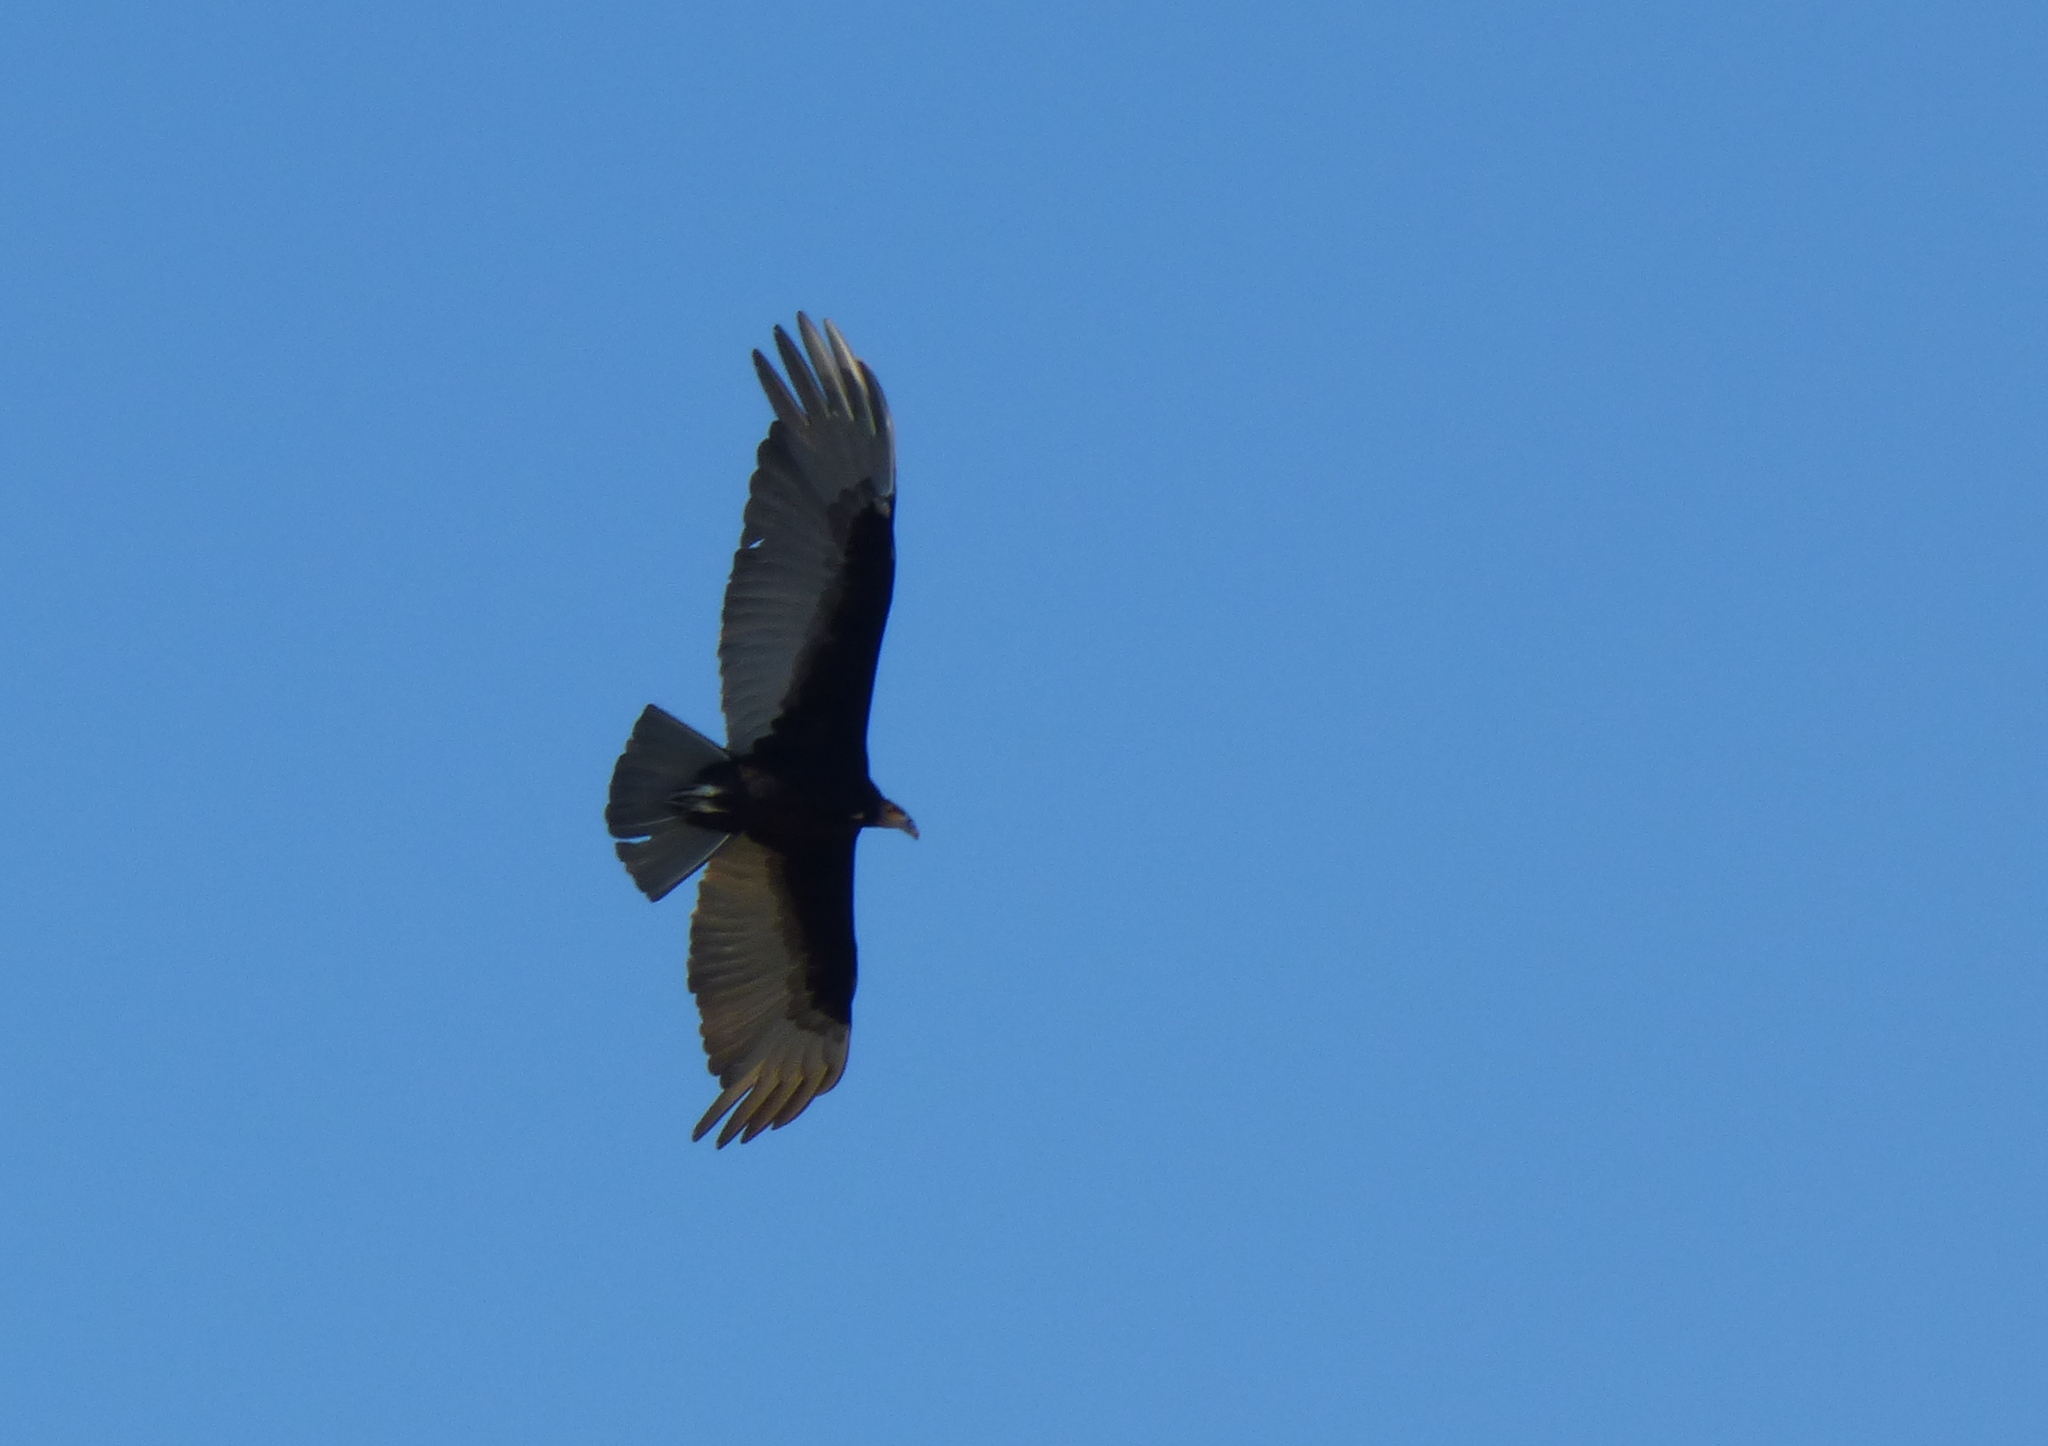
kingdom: Animalia
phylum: Chordata
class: Aves
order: Accipitriformes
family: Cathartidae
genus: Cathartes
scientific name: Cathartes burrovianus
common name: Lesser yellow-headed vulture
